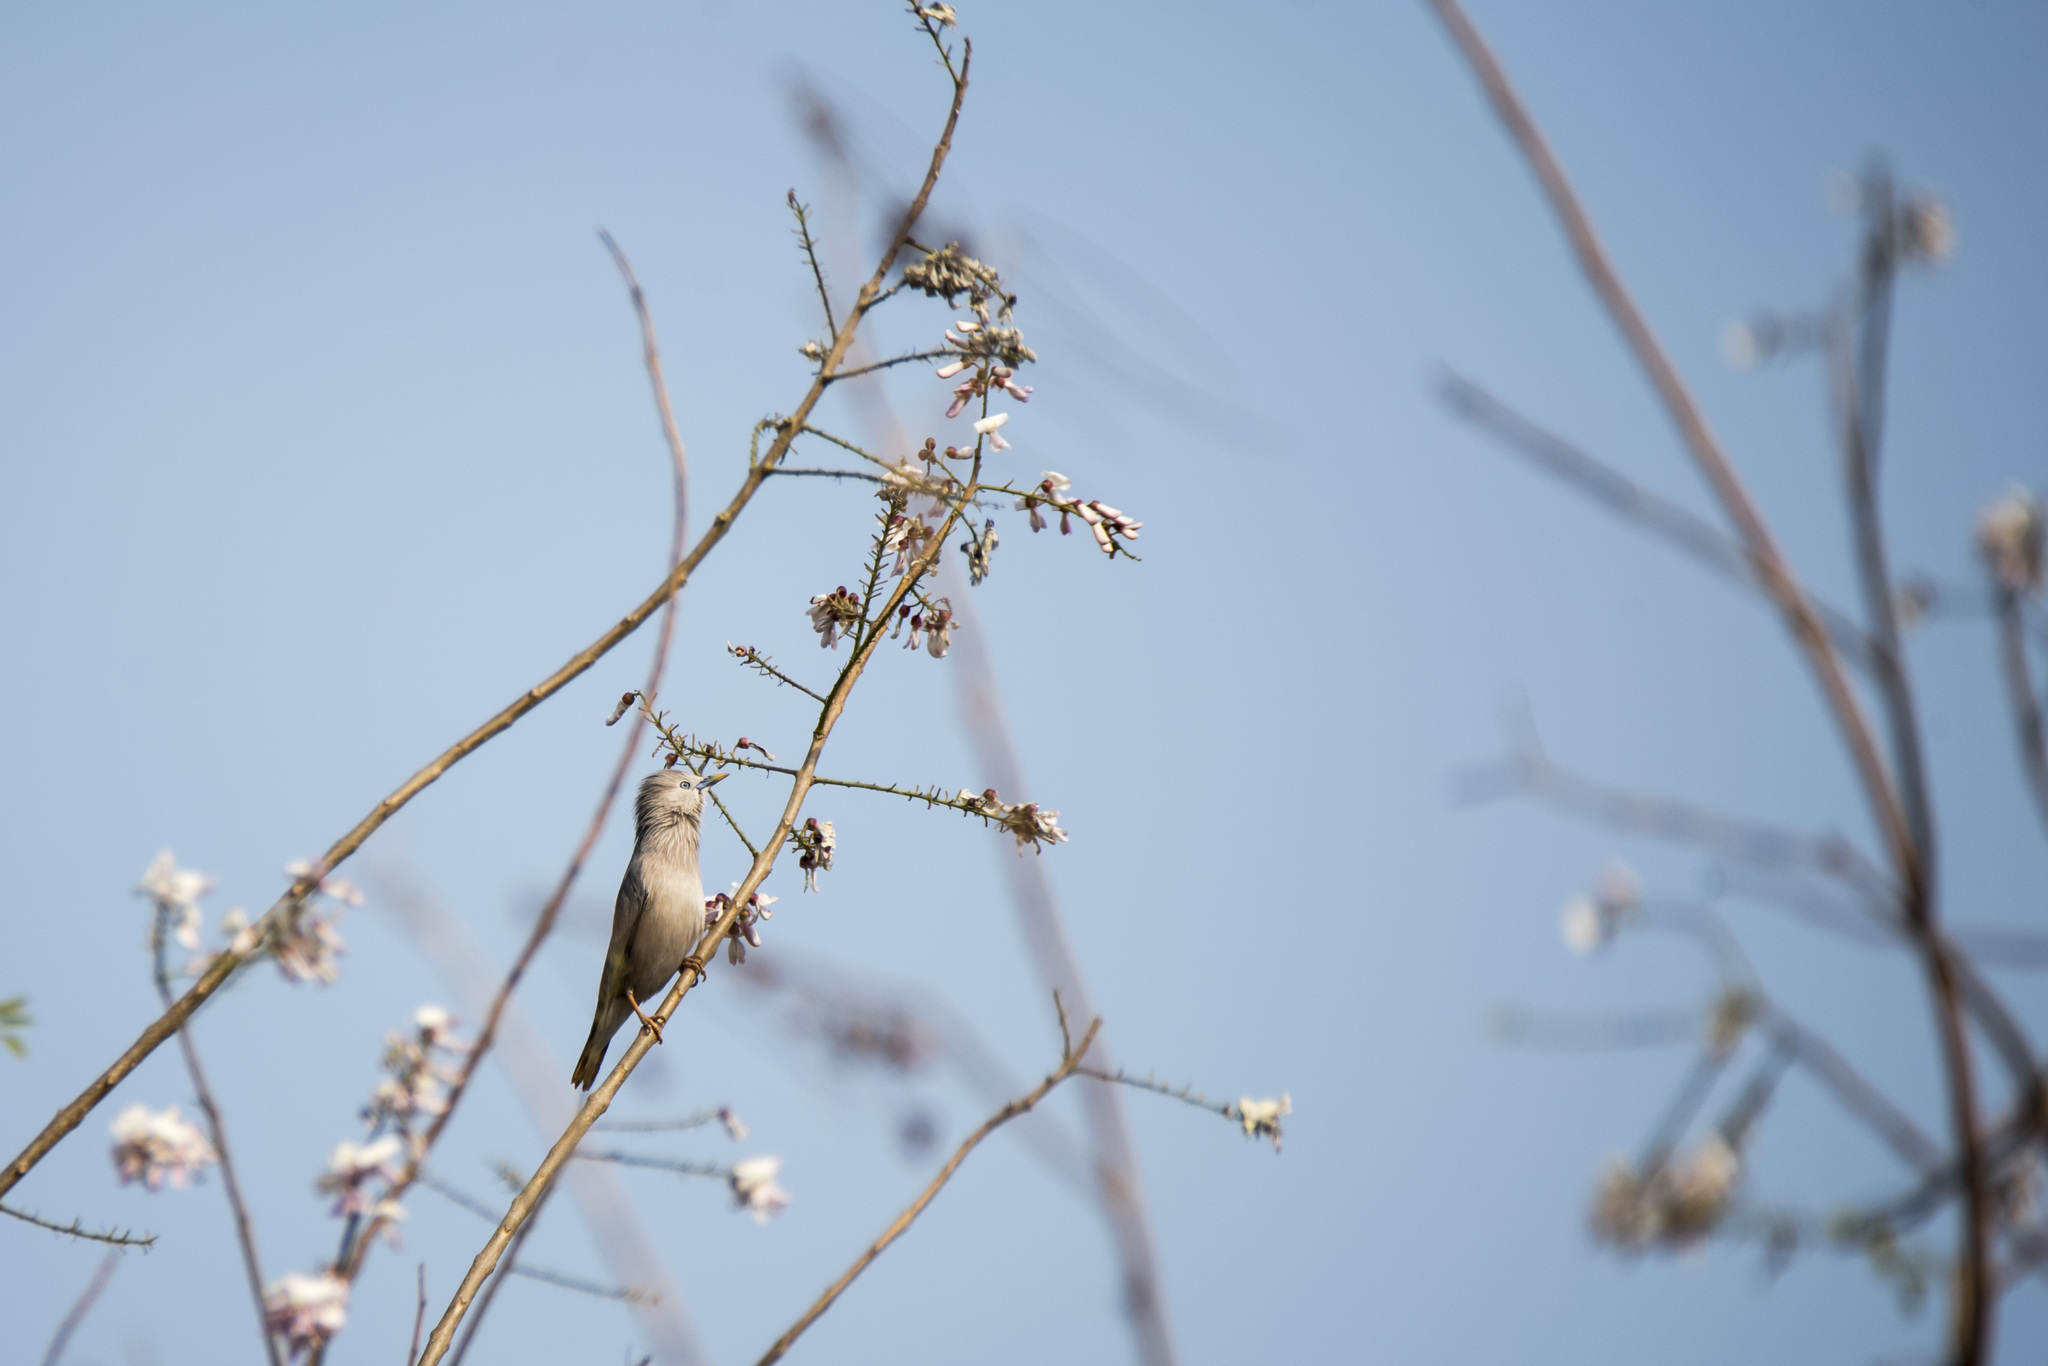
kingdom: Animalia
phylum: Chordata
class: Aves
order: Passeriformes
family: Sturnidae
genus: Sturnia
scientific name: Sturnia malabarica
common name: Chestnut-tailed starling
